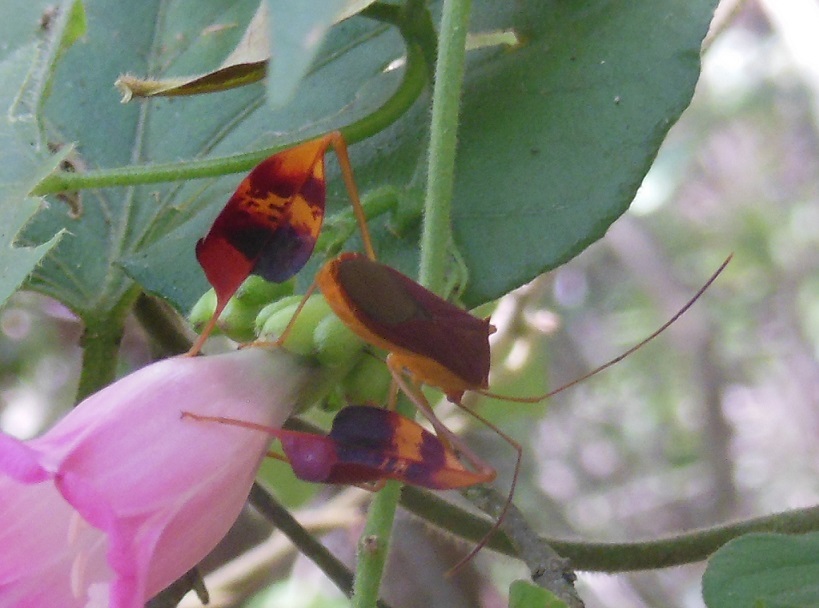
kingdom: Animalia
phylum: Arthropoda
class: Insecta
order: Hemiptera
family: Coreidae
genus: Bitta
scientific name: Bitta
